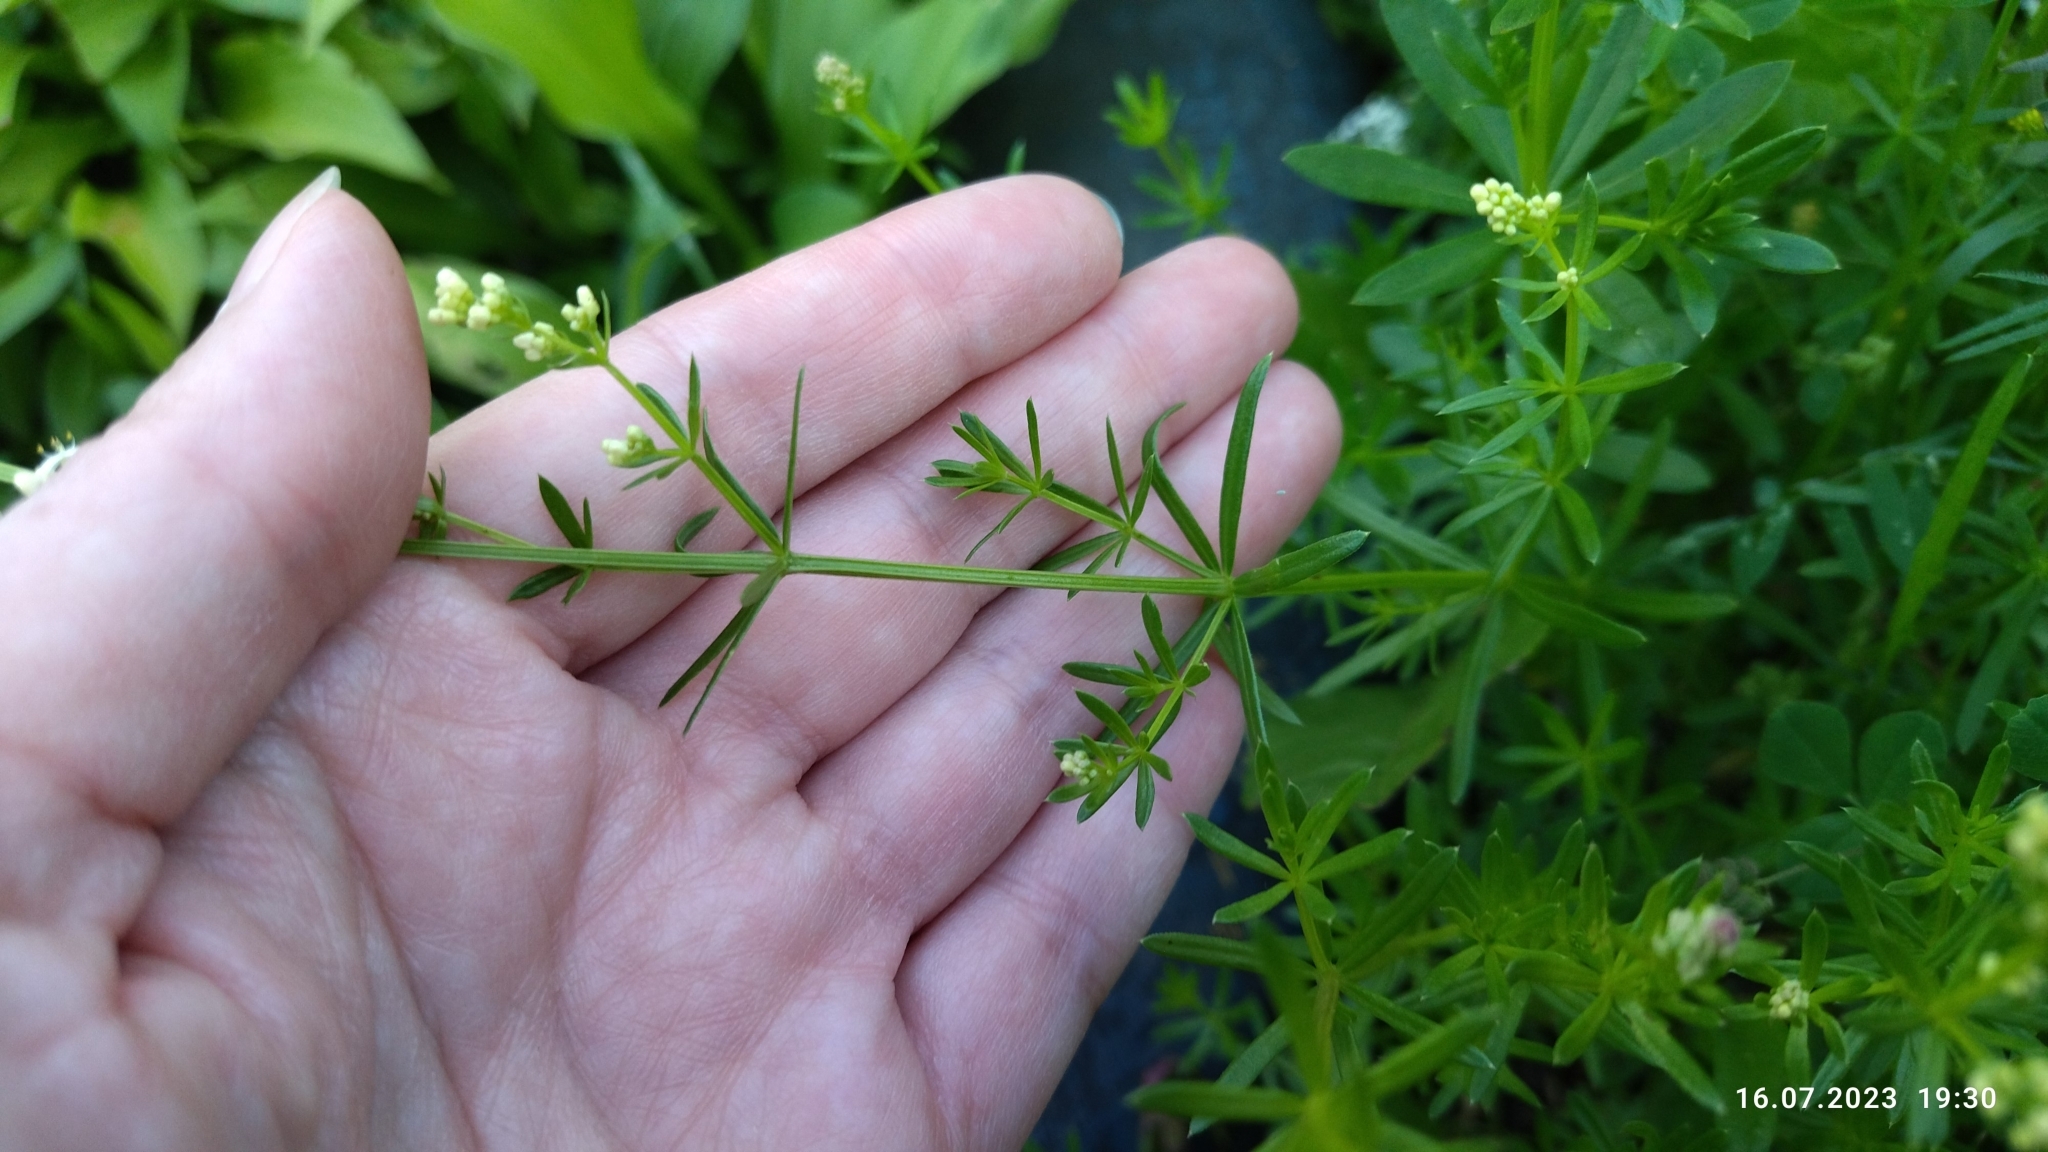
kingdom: Plantae
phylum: Tracheophyta
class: Magnoliopsida
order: Gentianales
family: Rubiaceae
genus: Galium
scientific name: Galium mollugo
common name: Hedge bedstraw
